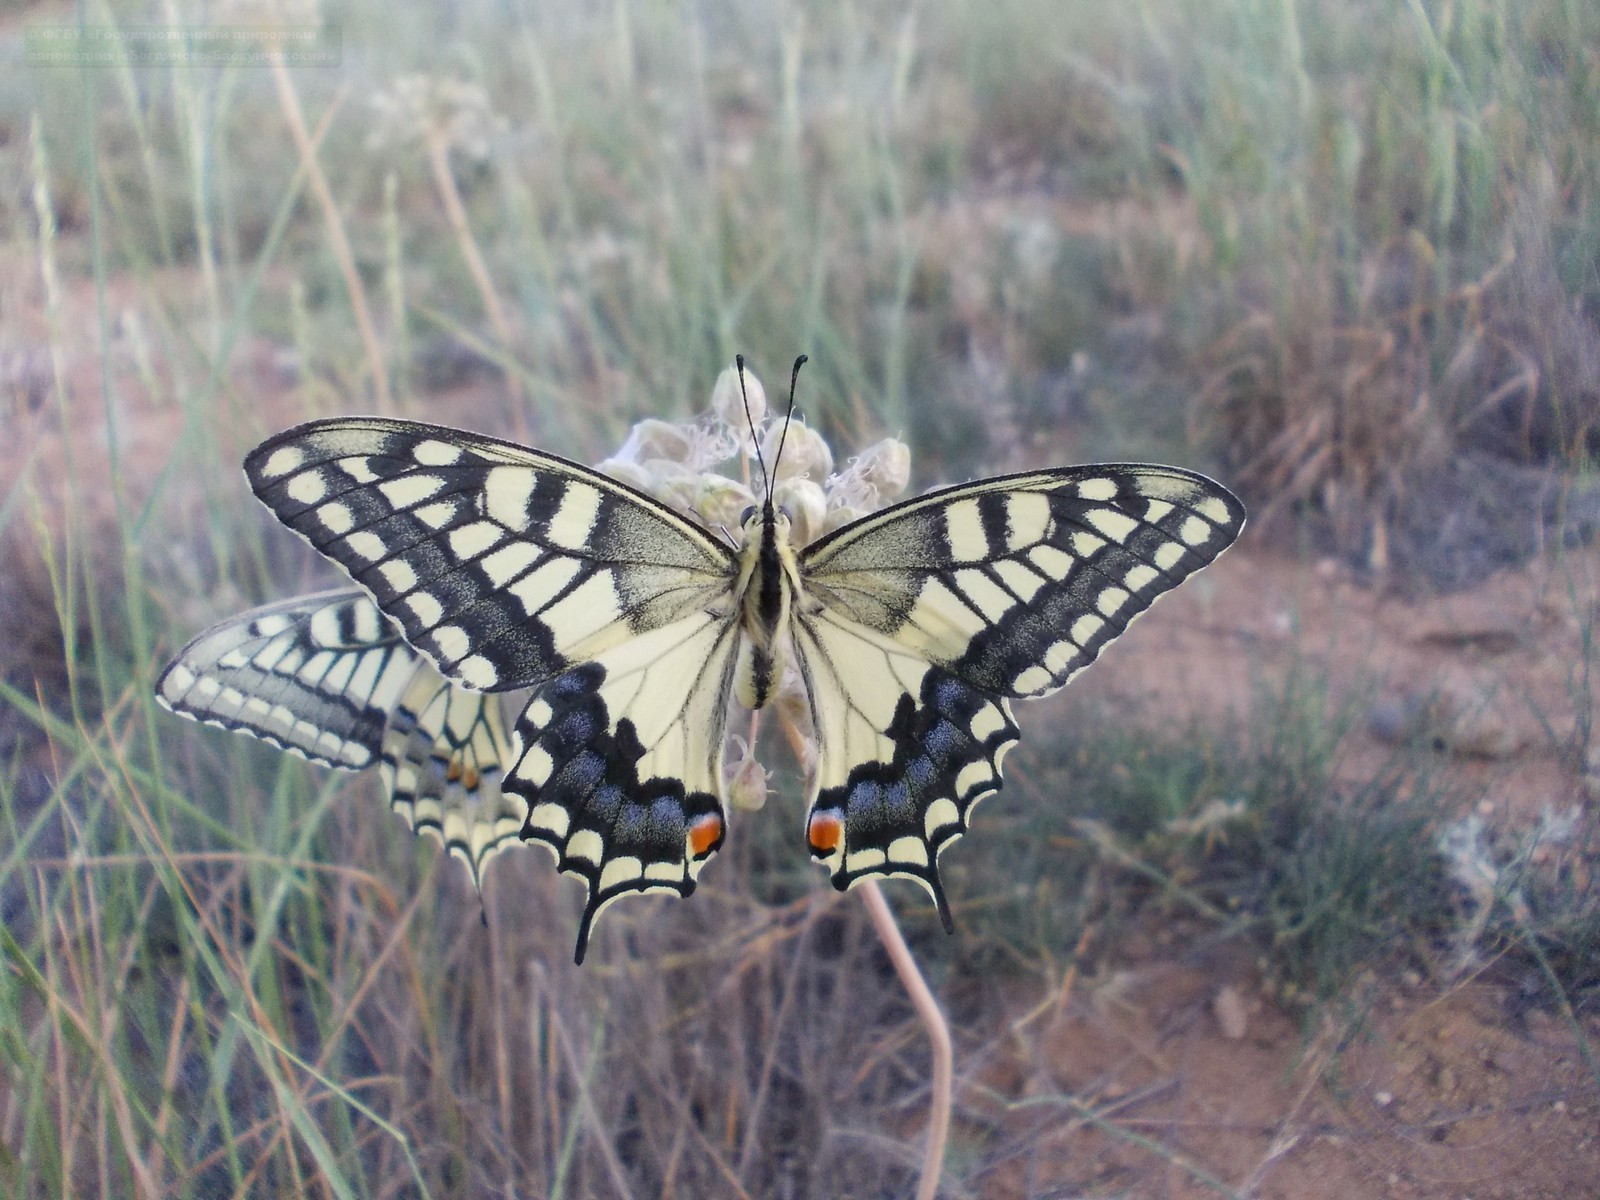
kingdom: Animalia
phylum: Arthropoda
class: Insecta
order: Lepidoptera
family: Papilionidae
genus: Papilio
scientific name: Papilio machaon
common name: Swallowtail
